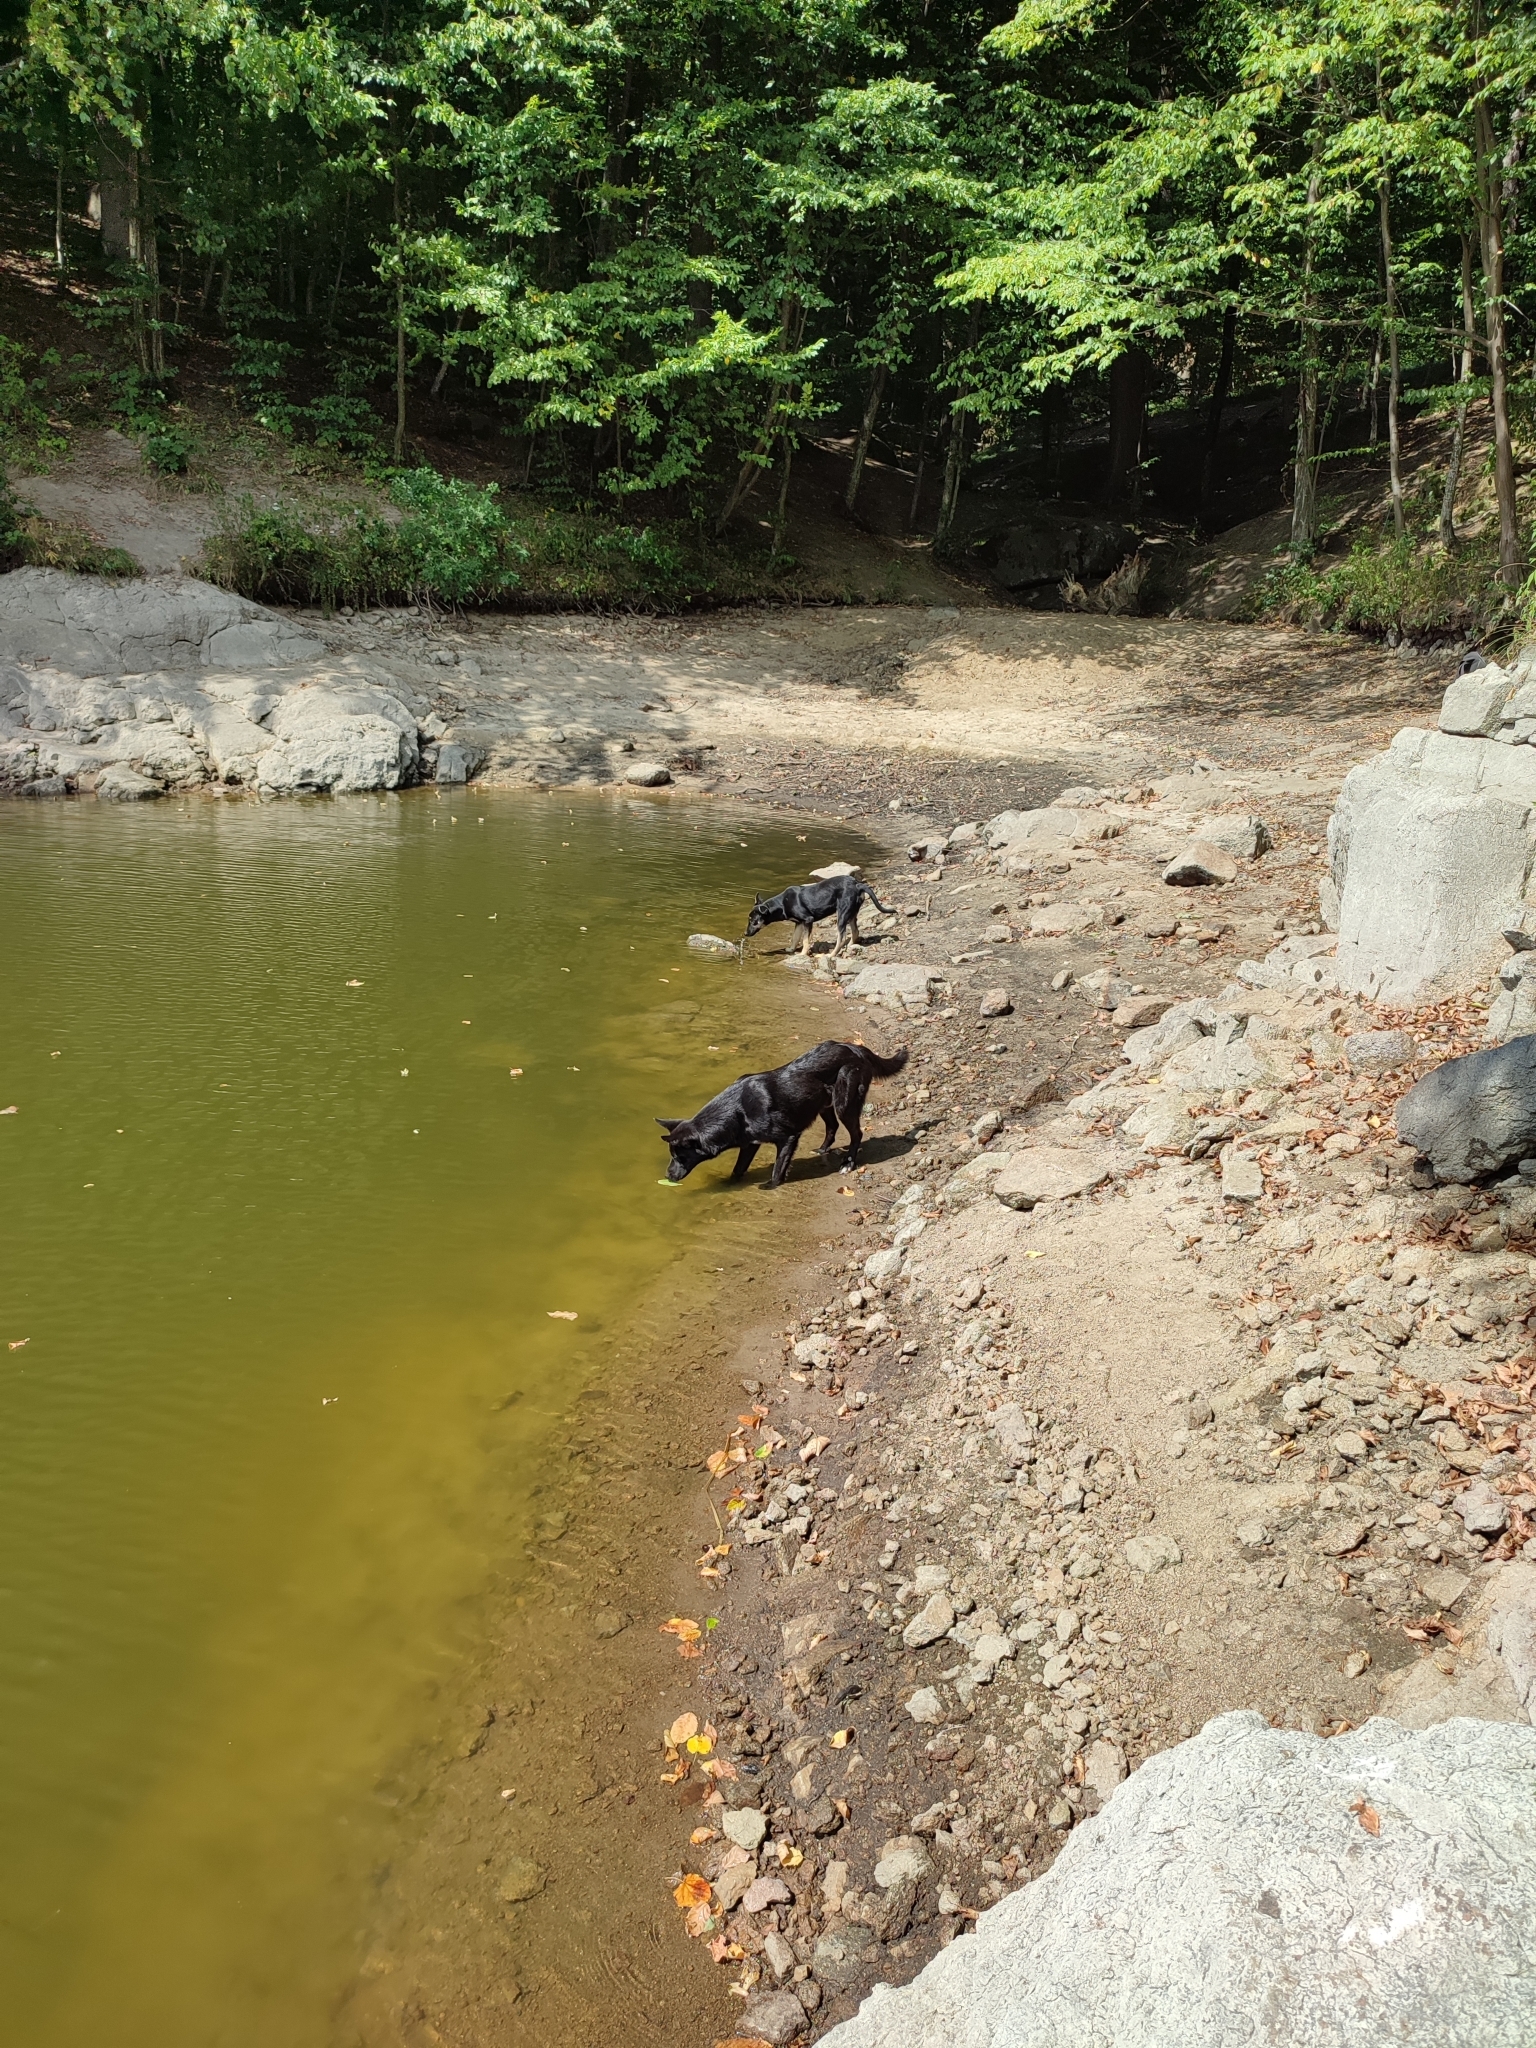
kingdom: Animalia
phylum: Chordata
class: Mammalia
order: Carnivora
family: Canidae
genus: Canis
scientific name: Canis lupus
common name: Gray wolf
